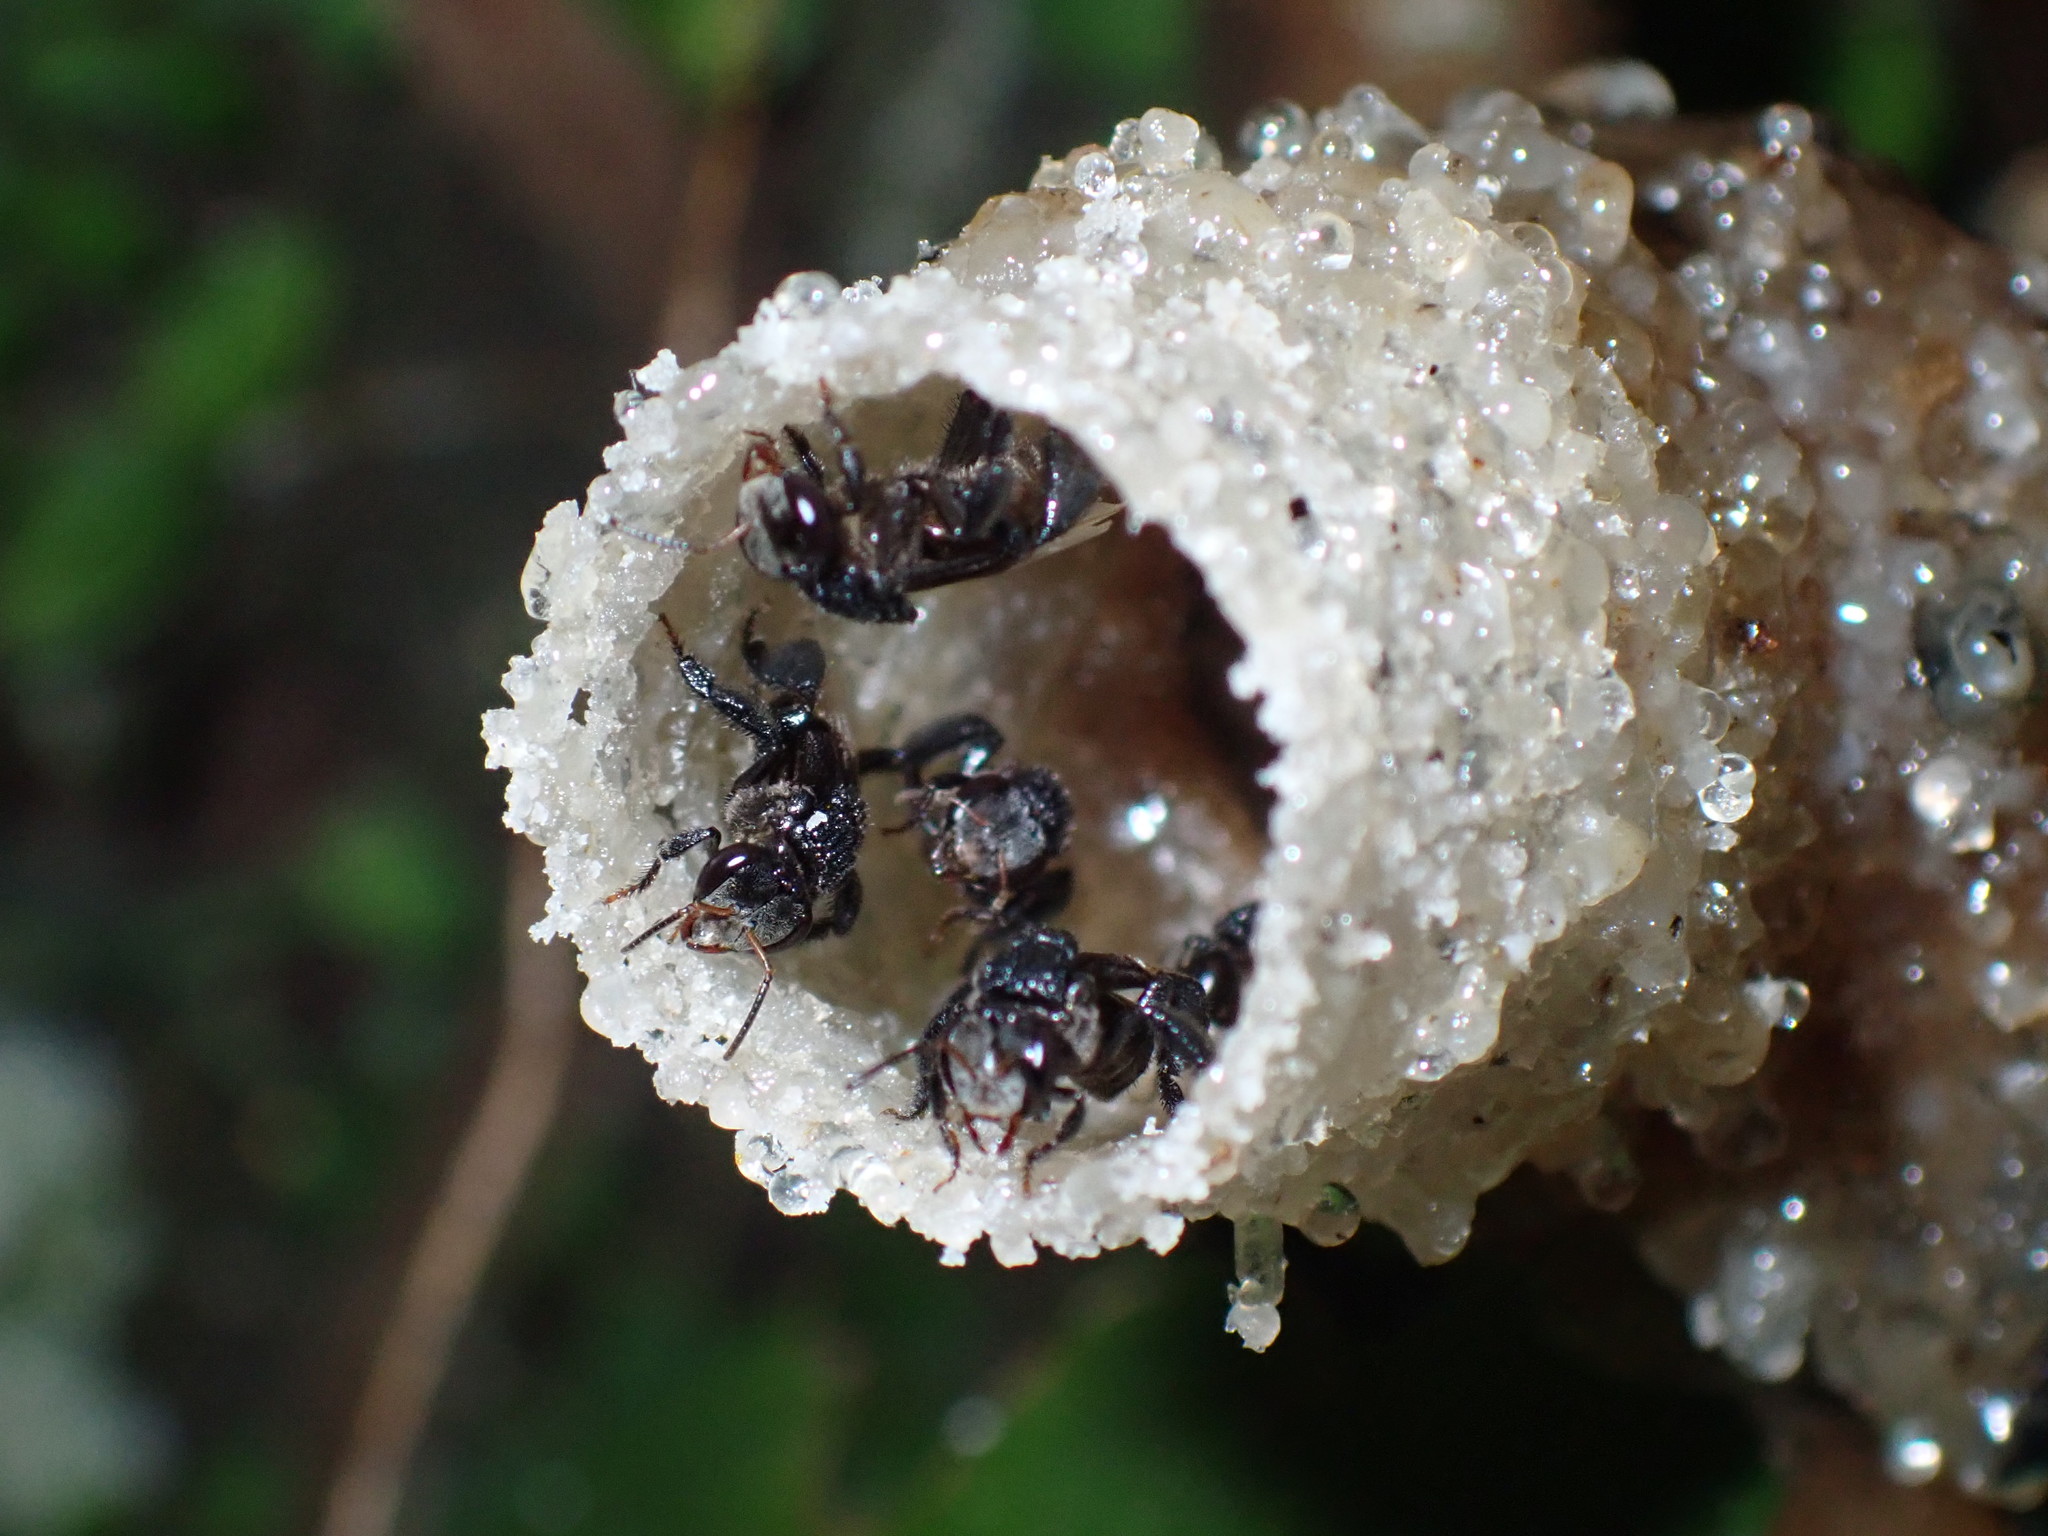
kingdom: Animalia
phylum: Arthropoda
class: Insecta
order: Hymenoptera
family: Apidae
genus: Tetragonula
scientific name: Tetragonula collina
